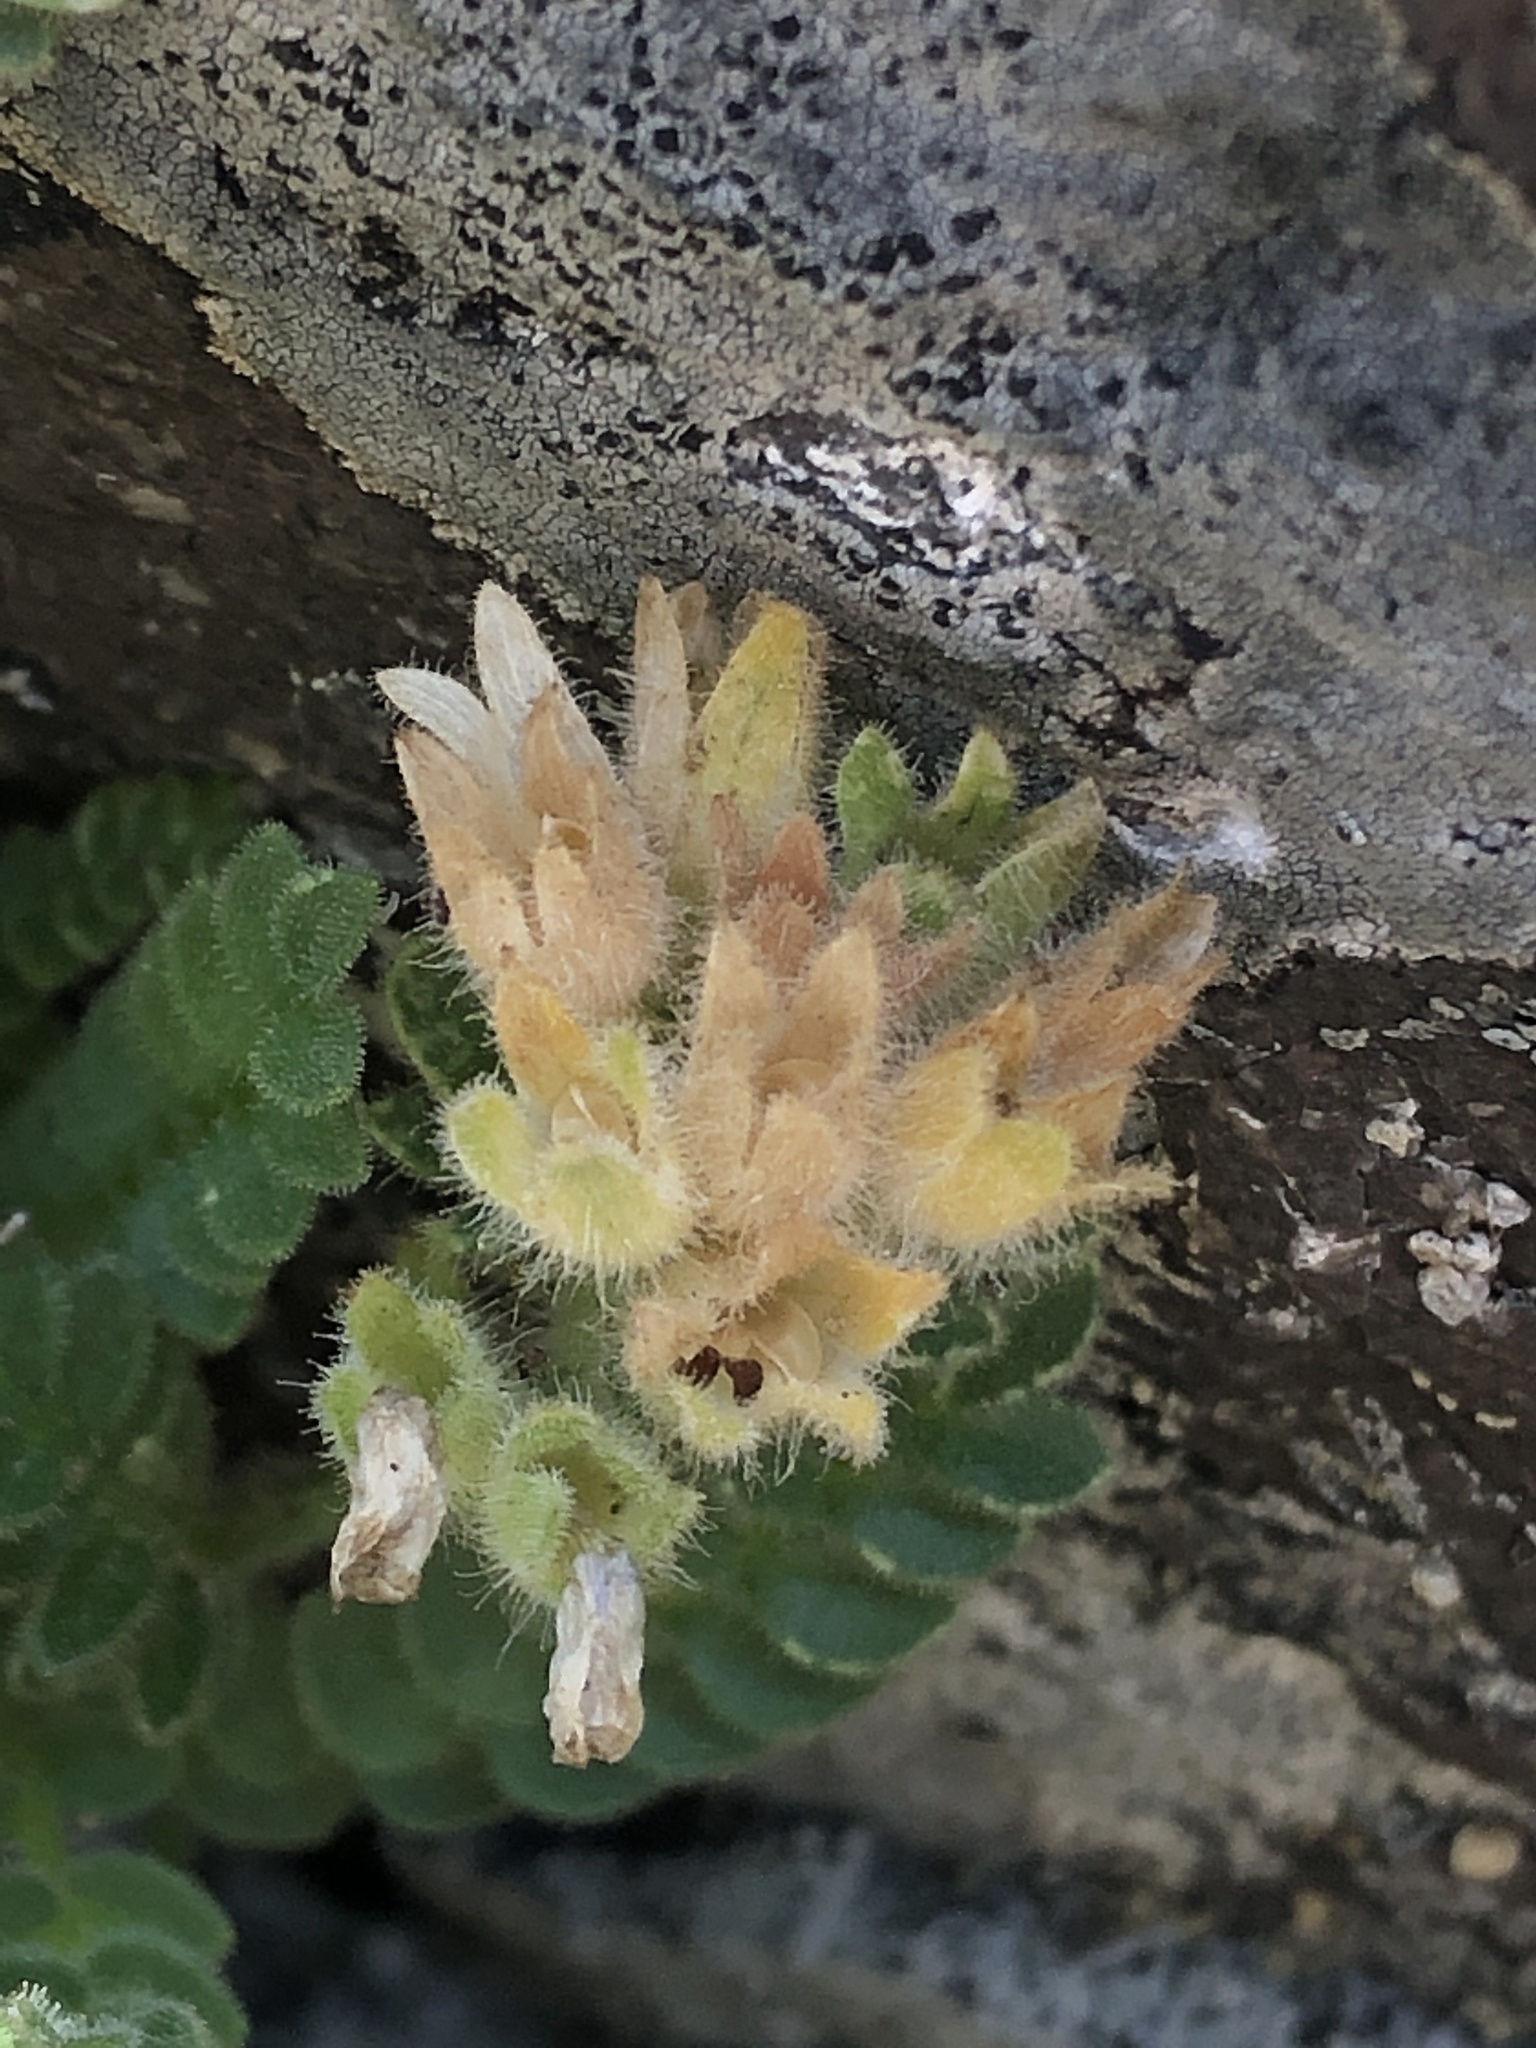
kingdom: Plantae
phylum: Tracheophyta
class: Magnoliopsida
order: Ericales
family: Polemoniaceae
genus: Polemonium
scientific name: Polemonium elegans
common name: Elegant jacob's-ladder
